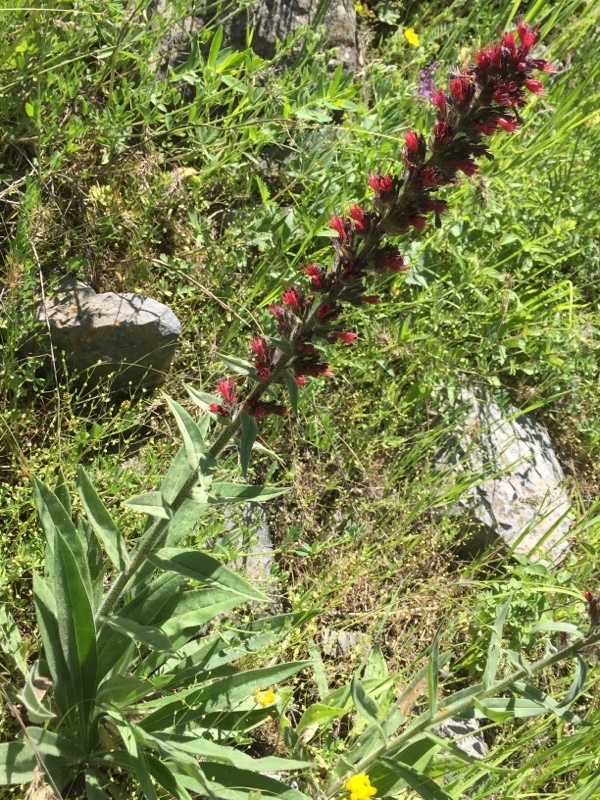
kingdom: Plantae
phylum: Tracheophyta
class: Magnoliopsida
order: Boraginales
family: Boraginaceae
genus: Pontechium
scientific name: Pontechium maculatum
